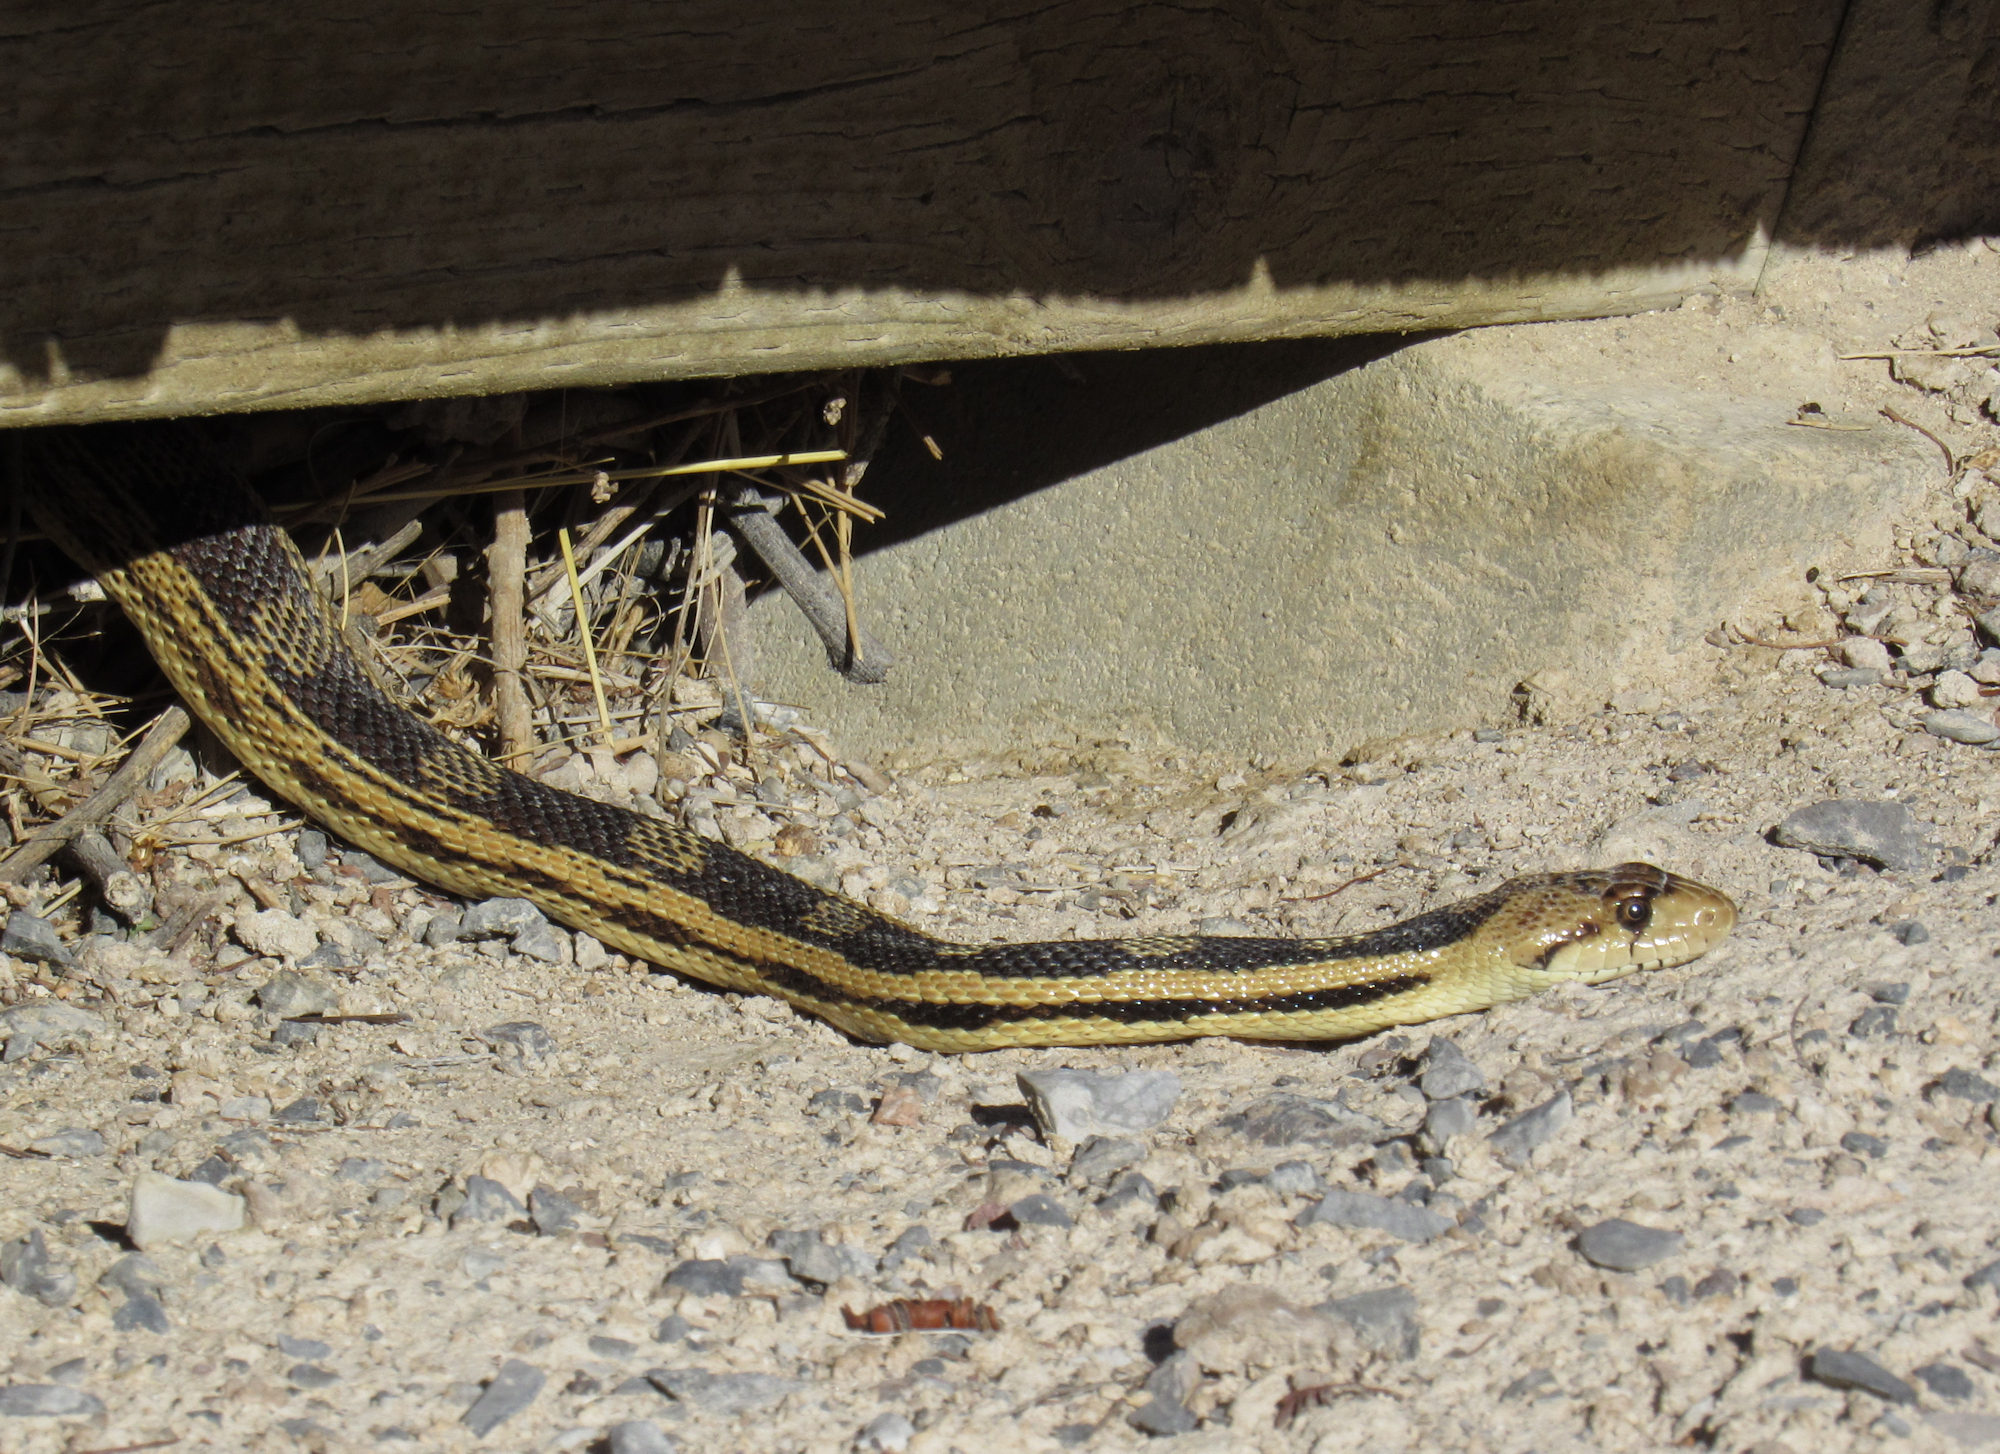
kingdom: Animalia
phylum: Chordata
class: Squamata
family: Colubridae
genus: Pituophis
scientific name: Pituophis catenifer
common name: Gopher snake
